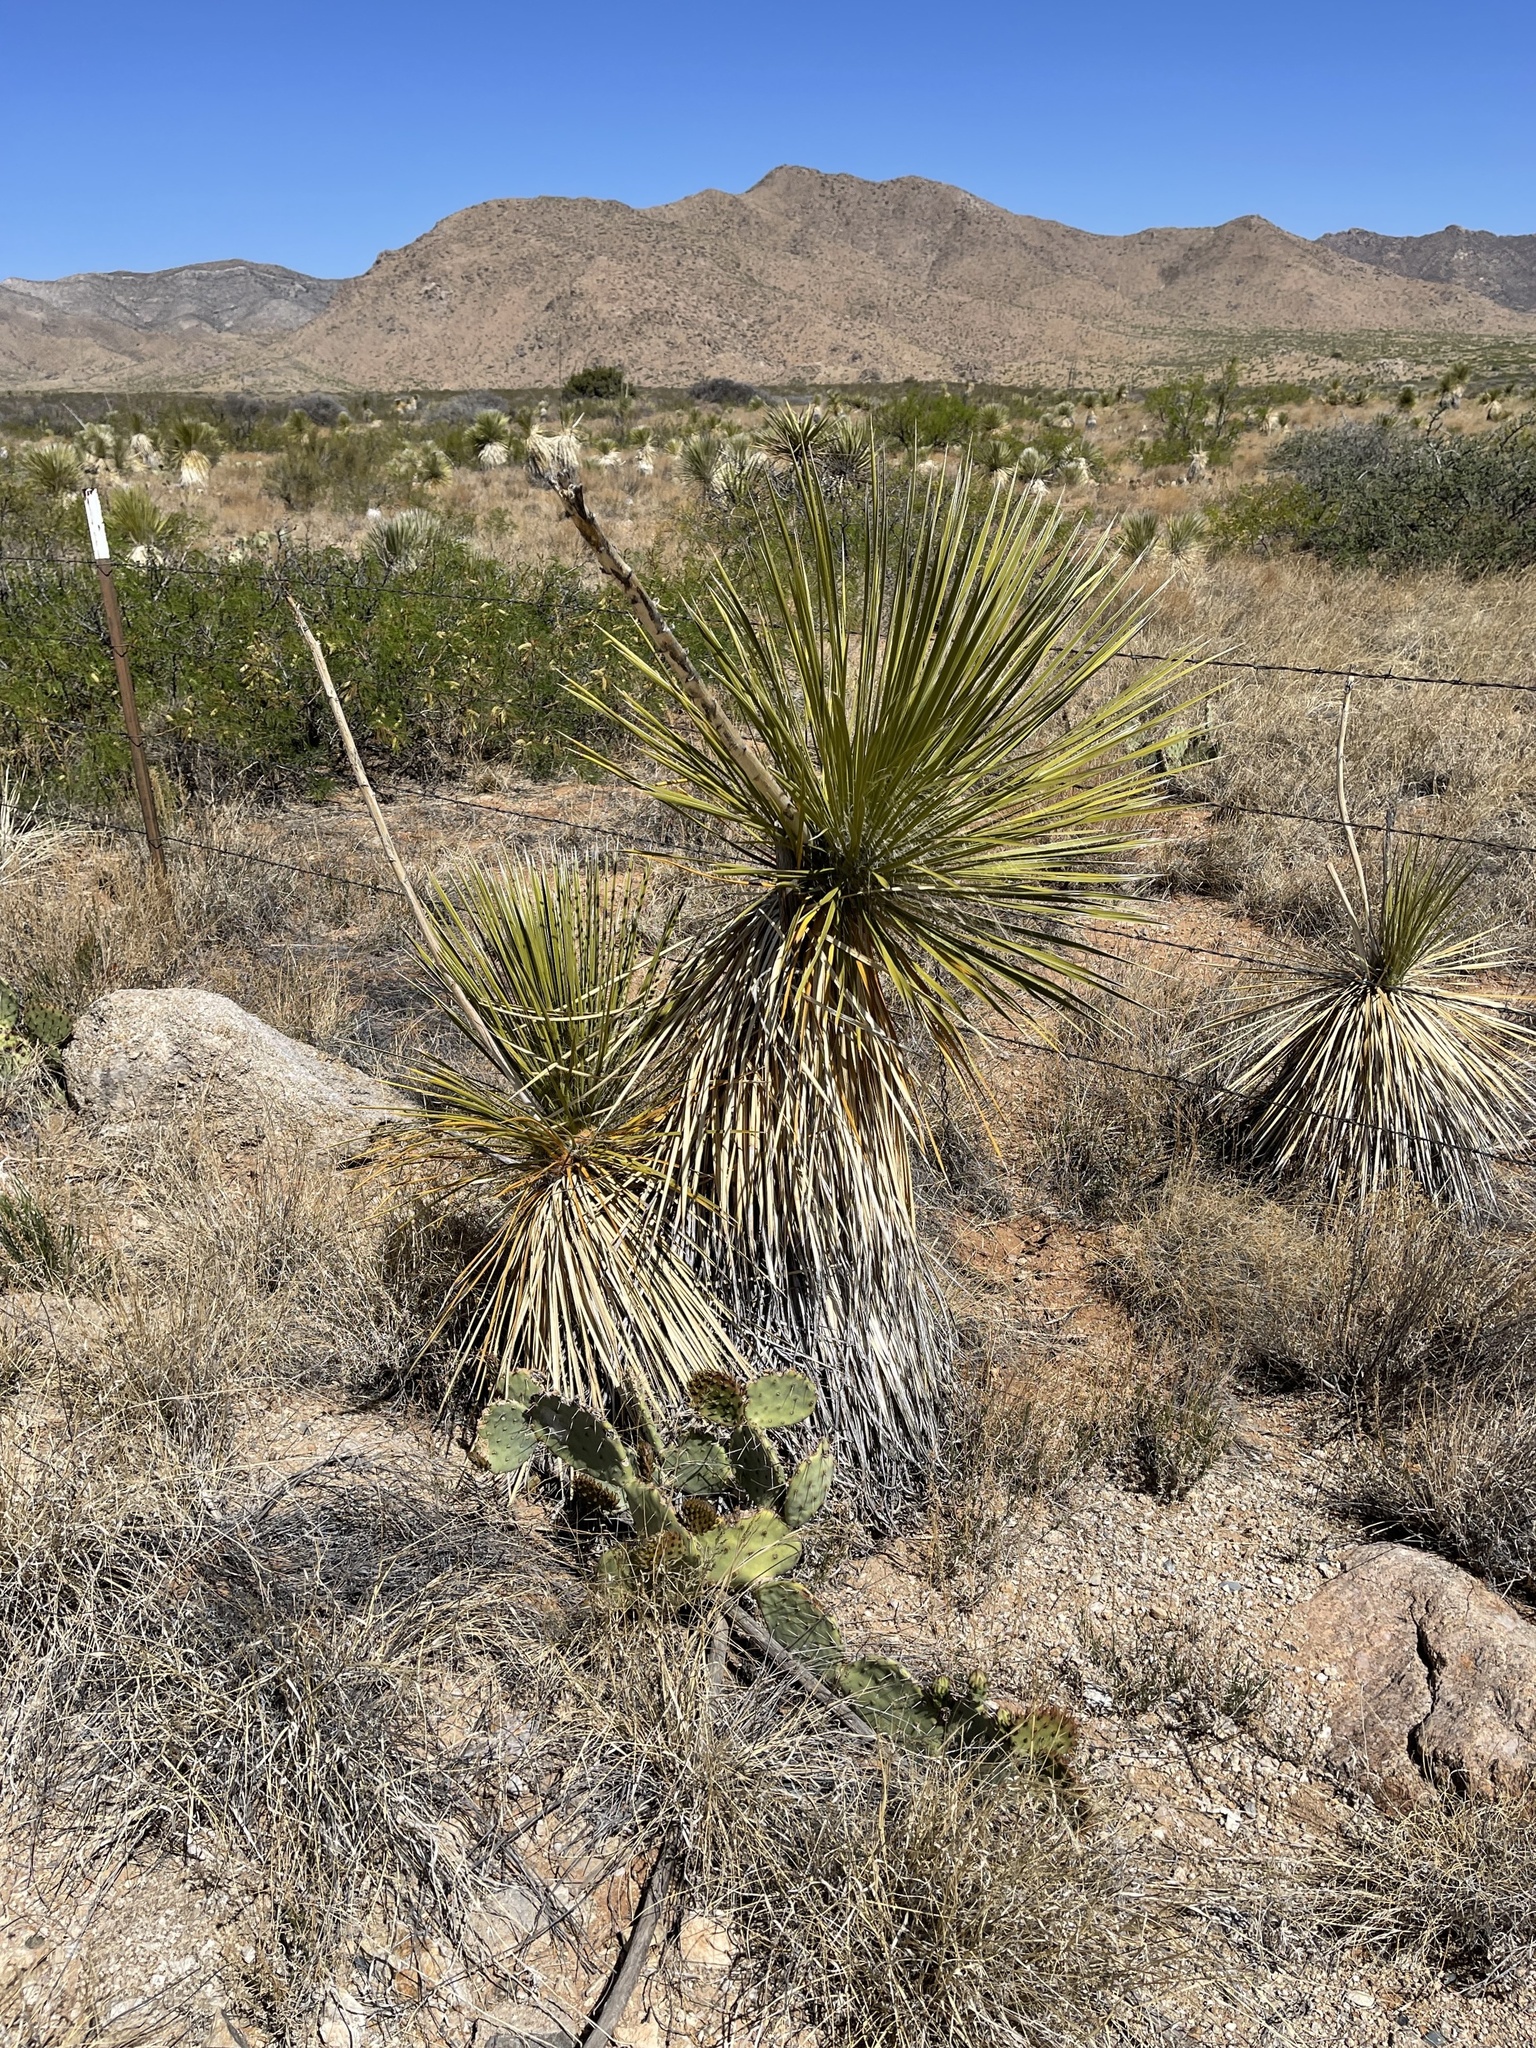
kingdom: Plantae
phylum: Tracheophyta
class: Liliopsida
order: Asparagales
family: Asparagaceae
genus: Yucca
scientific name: Yucca elata
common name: Palmella
